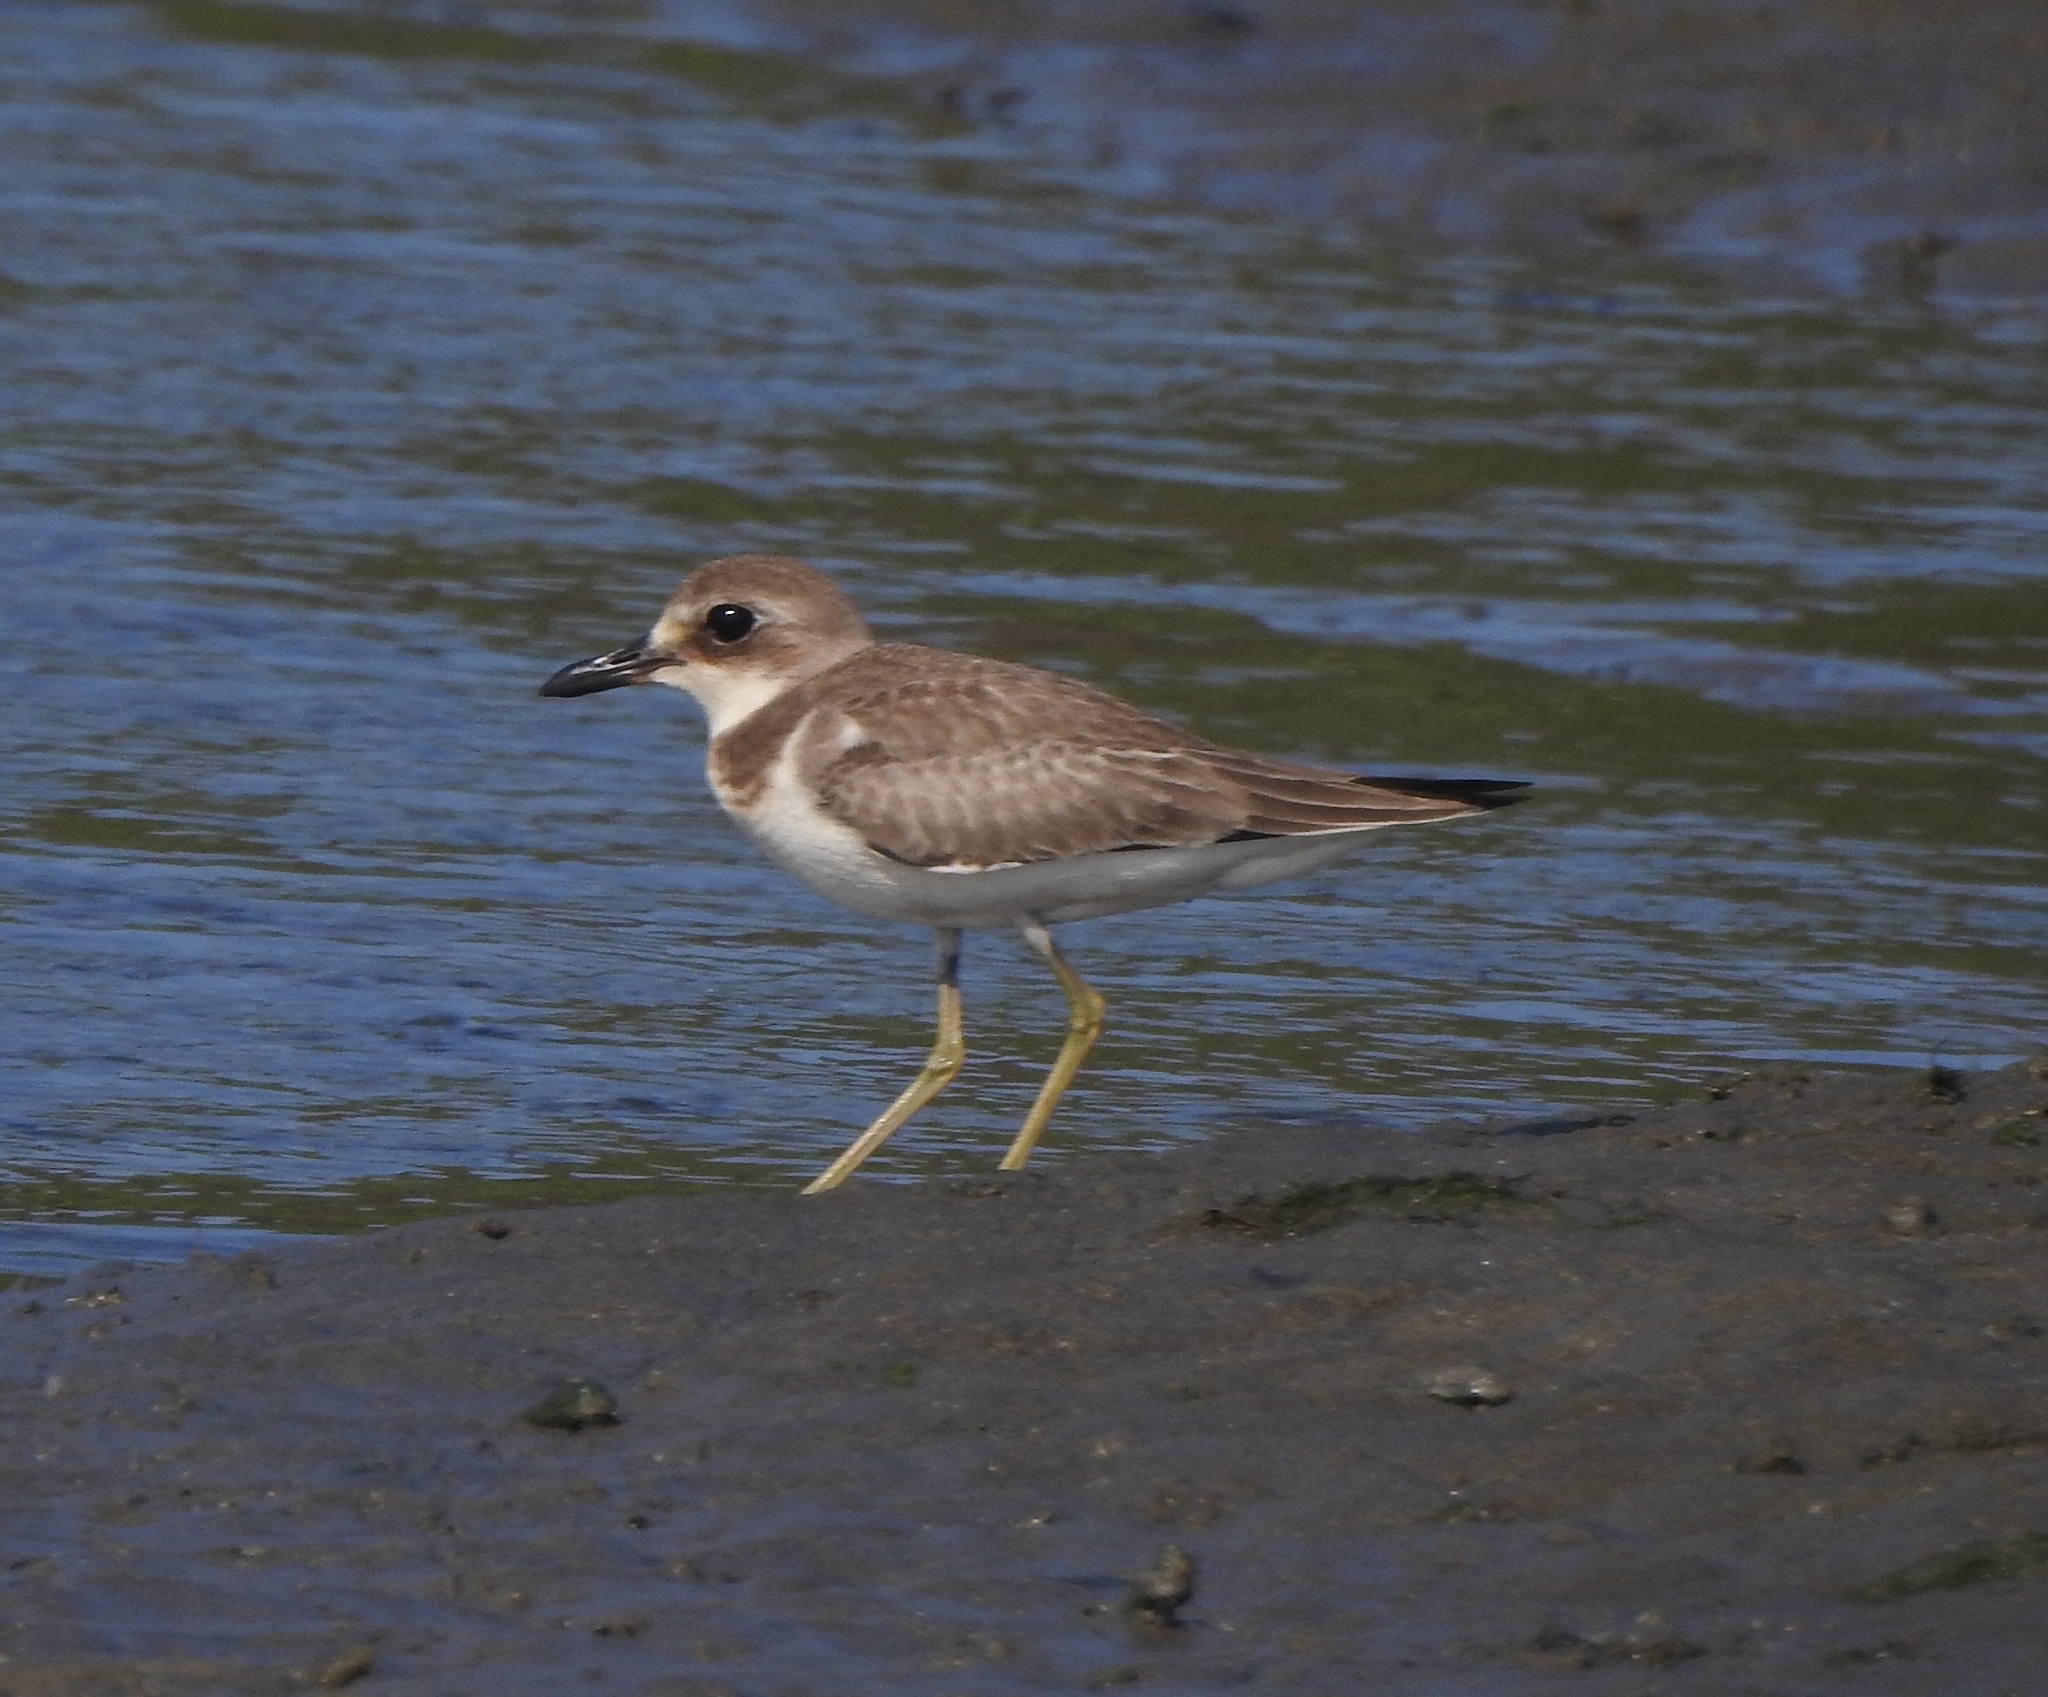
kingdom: Animalia
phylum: Chordata
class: Aves
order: Charadriiformes
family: Charadriidae
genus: Charadrius
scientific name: Charadrius leschenaultii
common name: Greater sand plover
